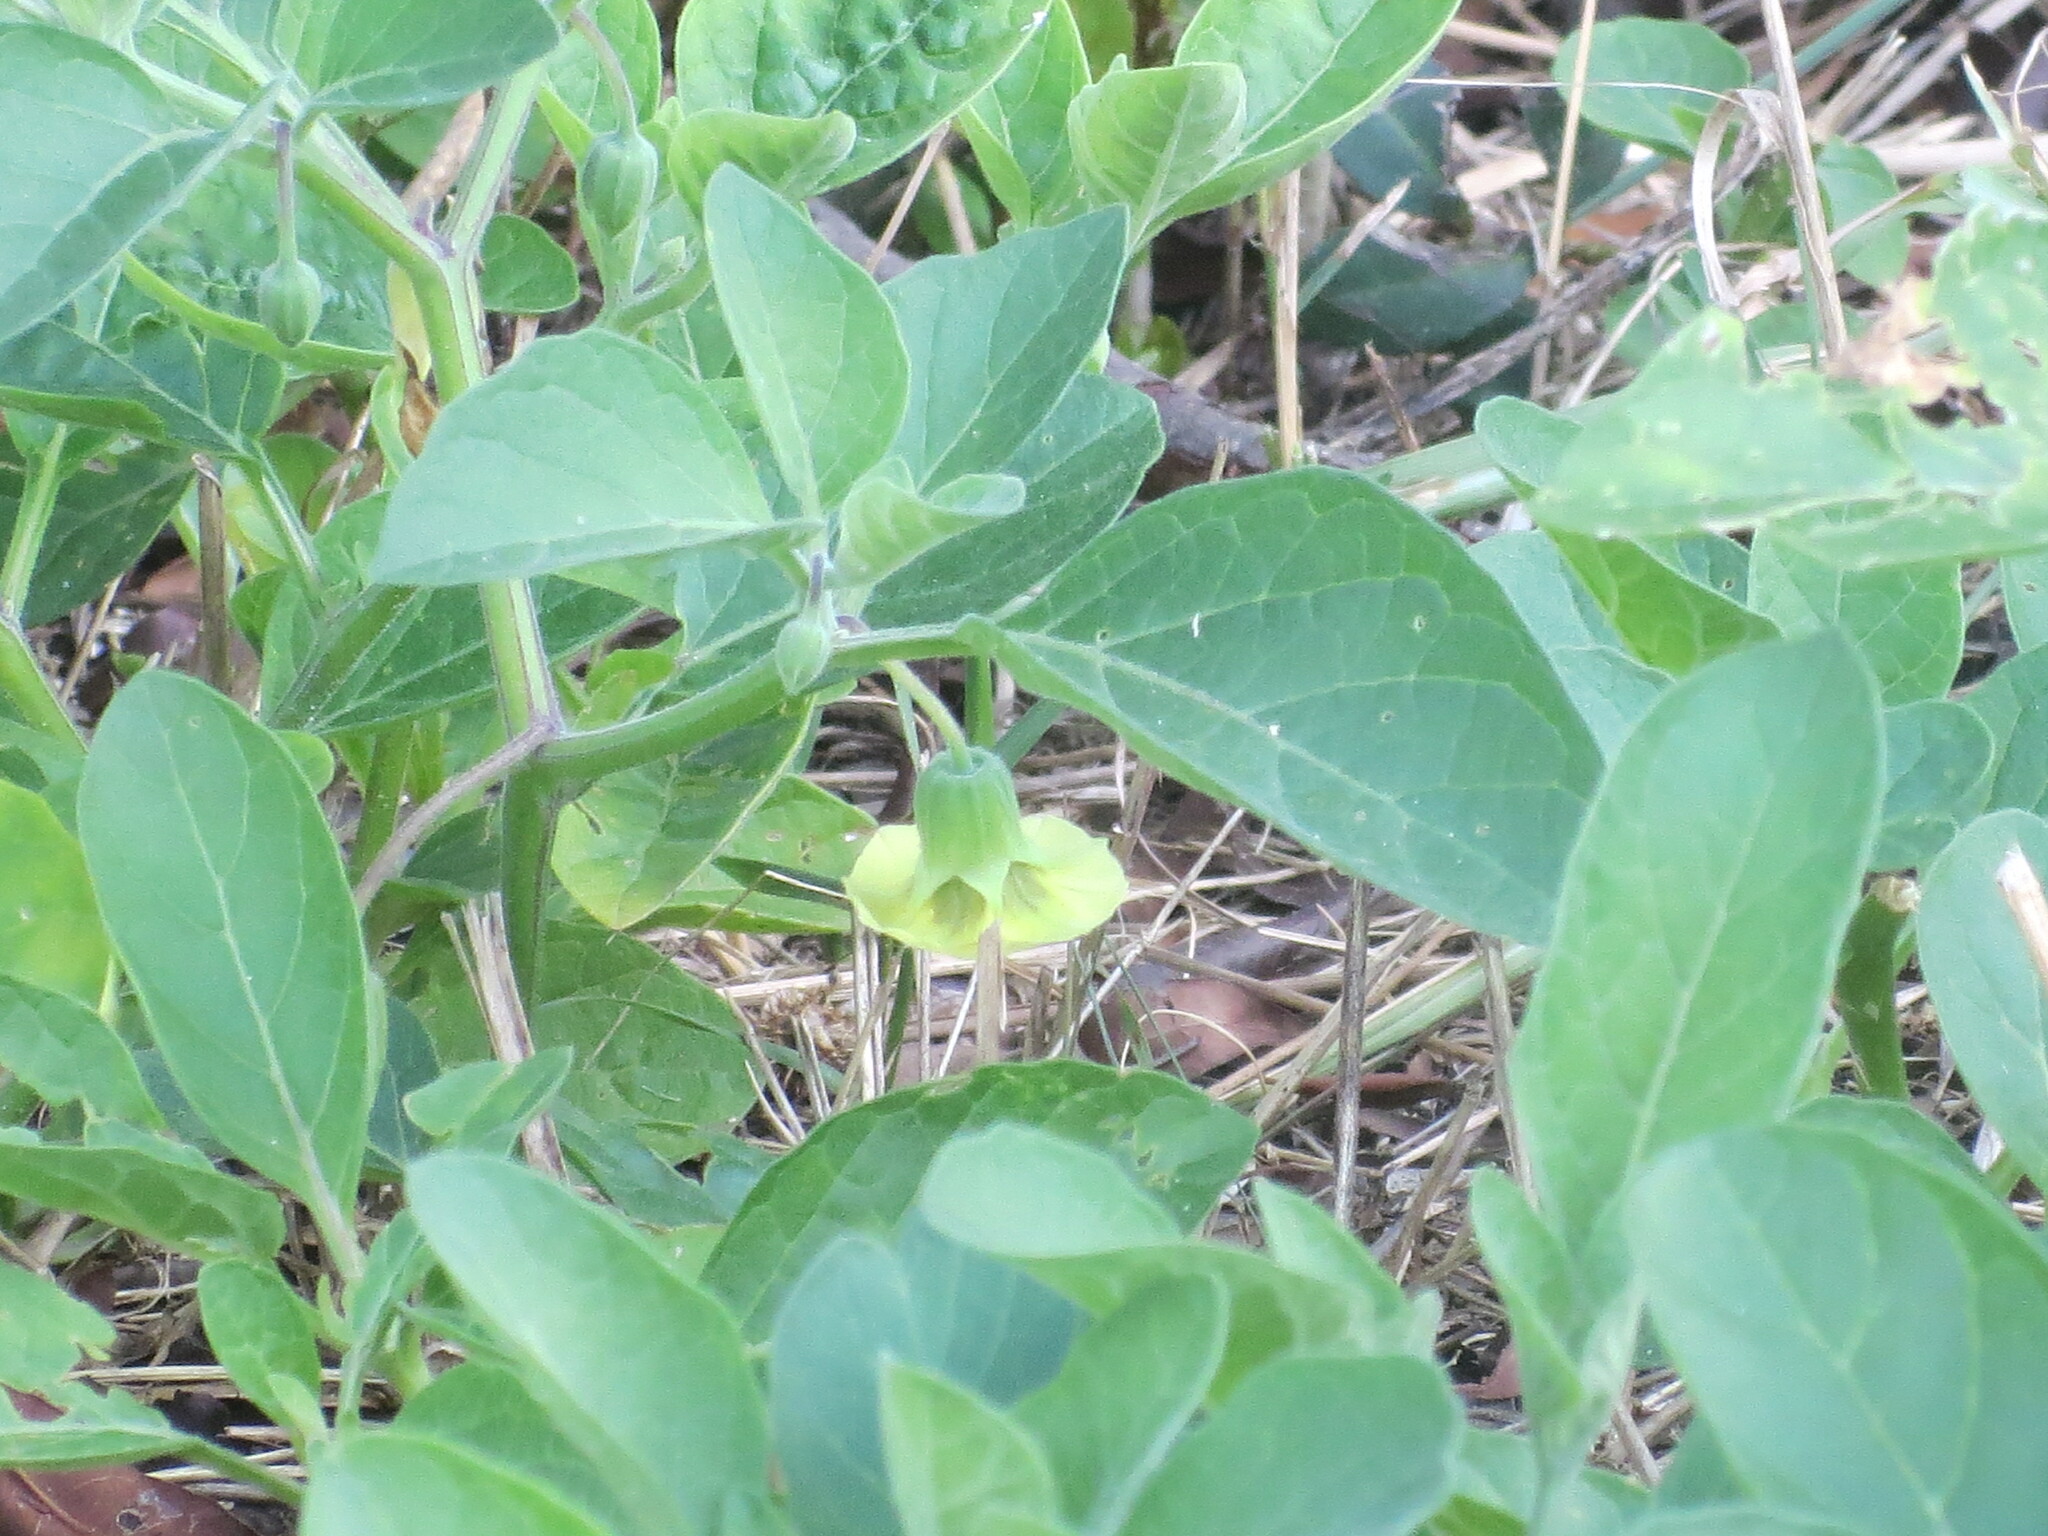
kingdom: Plantae
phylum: Tracheophyta
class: Magnoliopsida
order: Solanales
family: Solanaceae
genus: Physalis
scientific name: Physalis walteri
